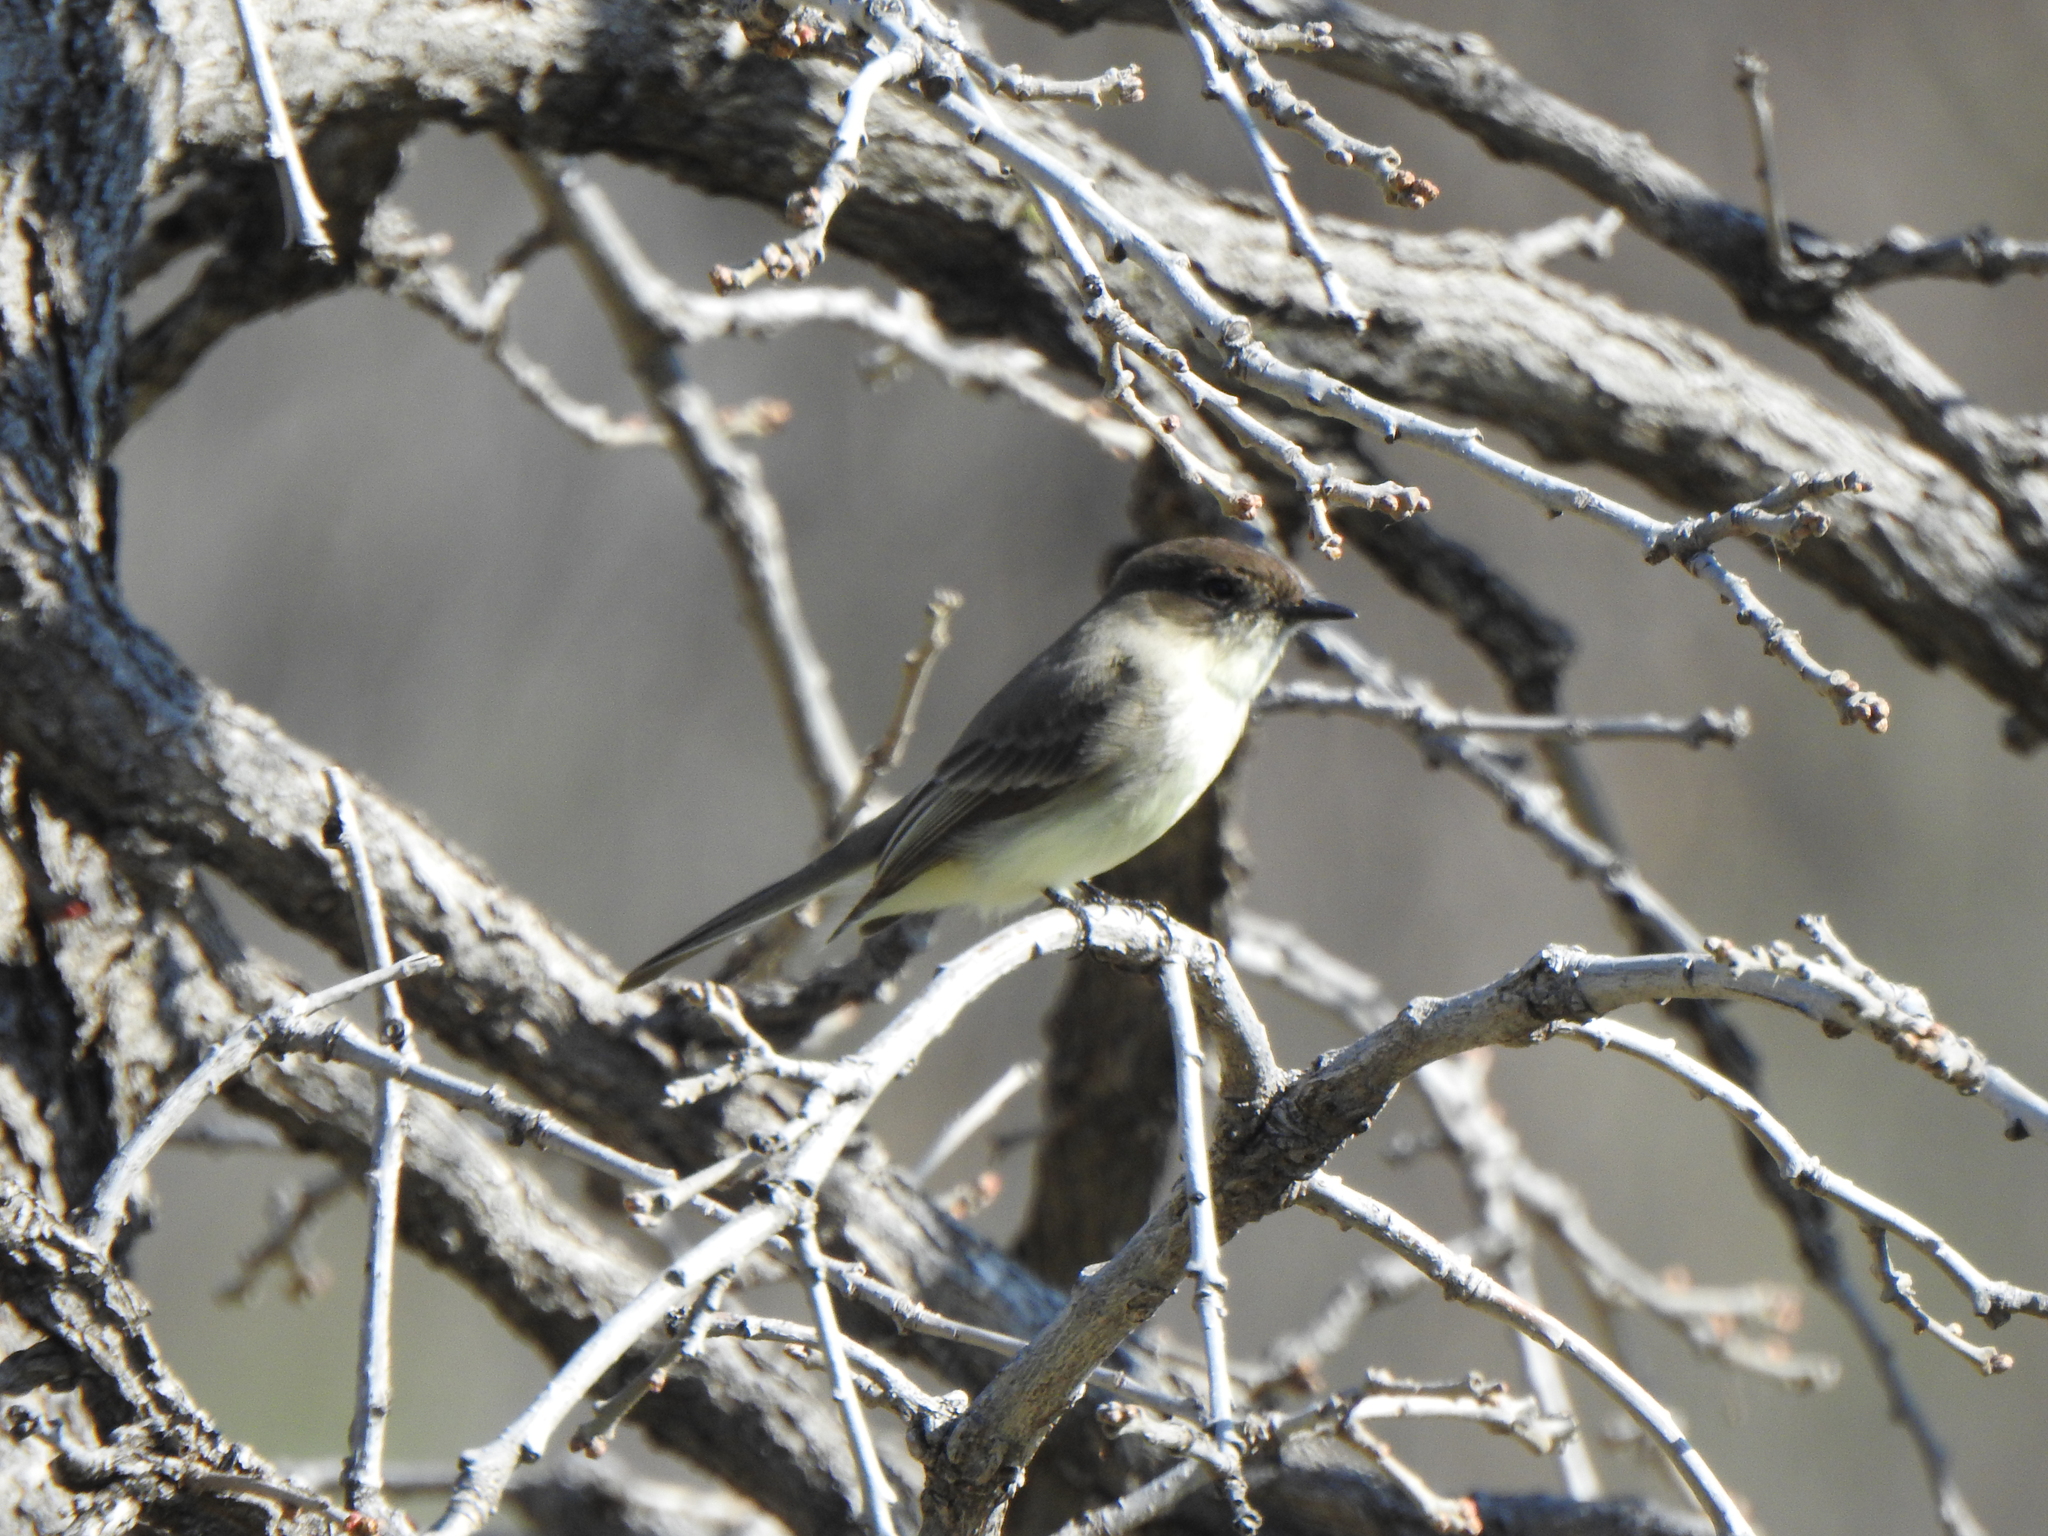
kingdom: Animalia
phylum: Chordata
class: Aves
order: Passeriformes
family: Tyrannidae
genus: Sayornis
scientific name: Sayornis phoebe
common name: Eastern phoebe
